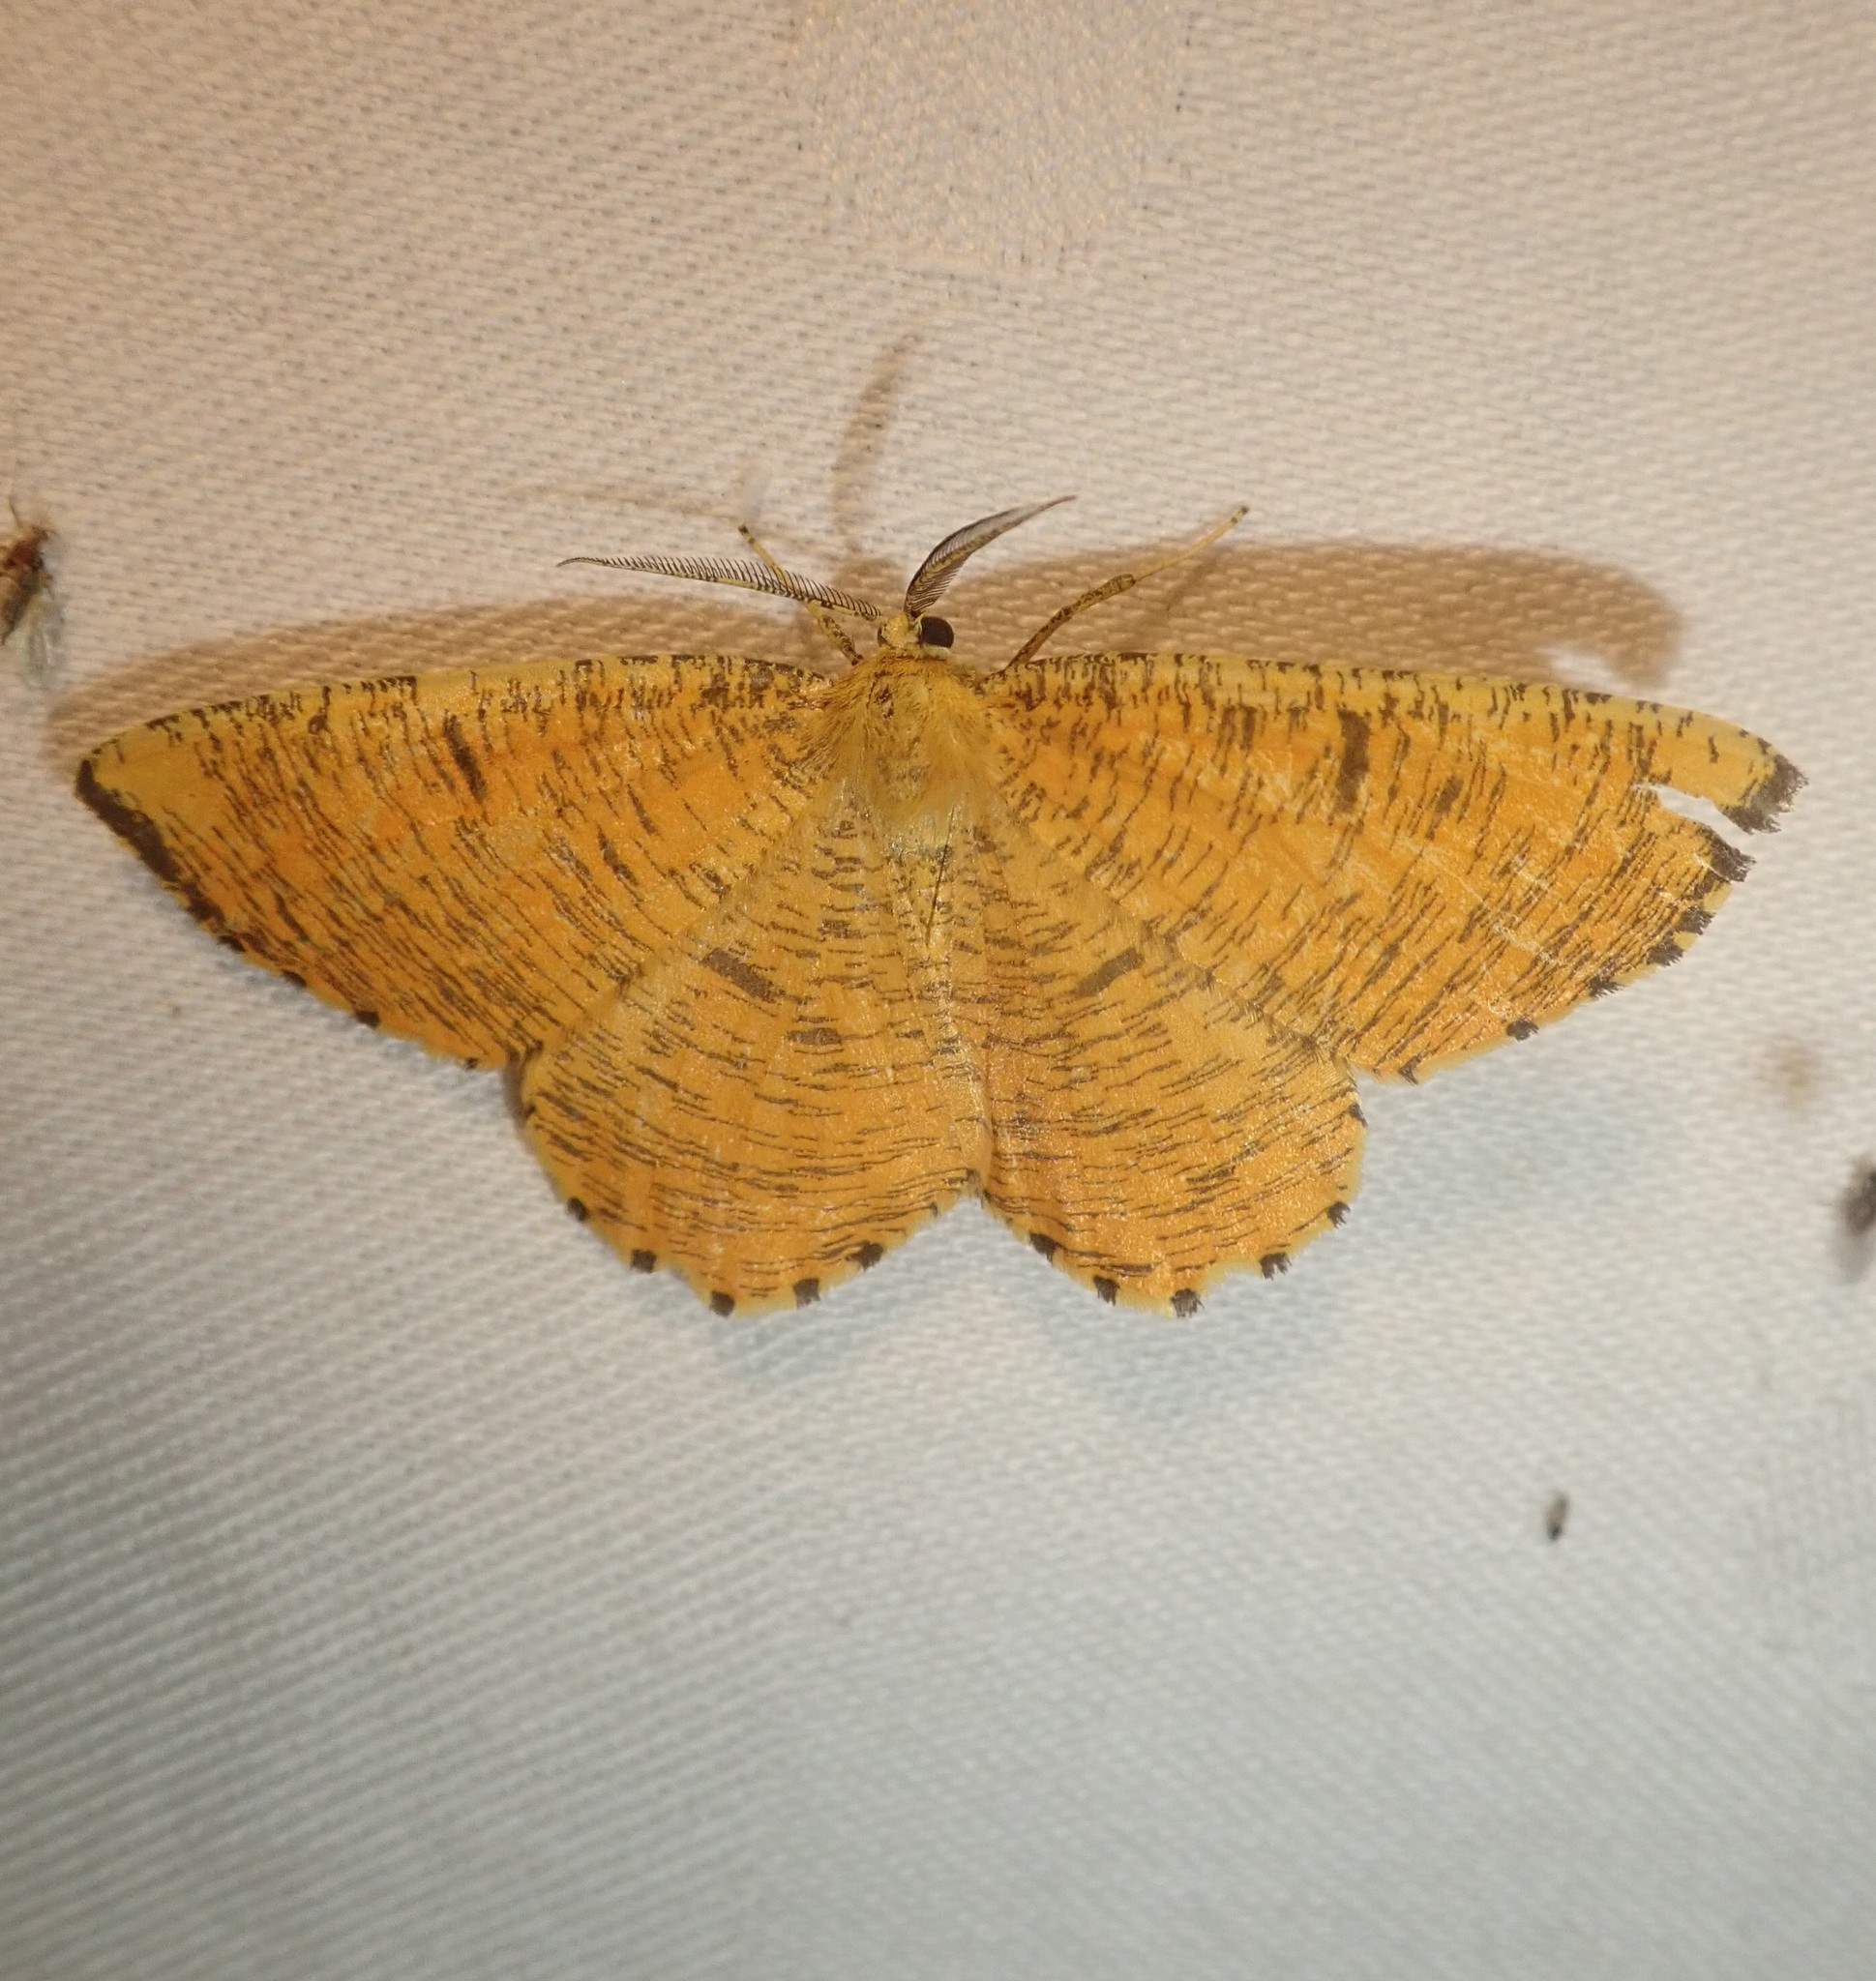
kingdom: Animalia
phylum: Arthropoda
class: Insecta
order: Lepidoptera
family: Geometridae
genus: Angerona
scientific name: Angerona prunaria
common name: Orange moth
